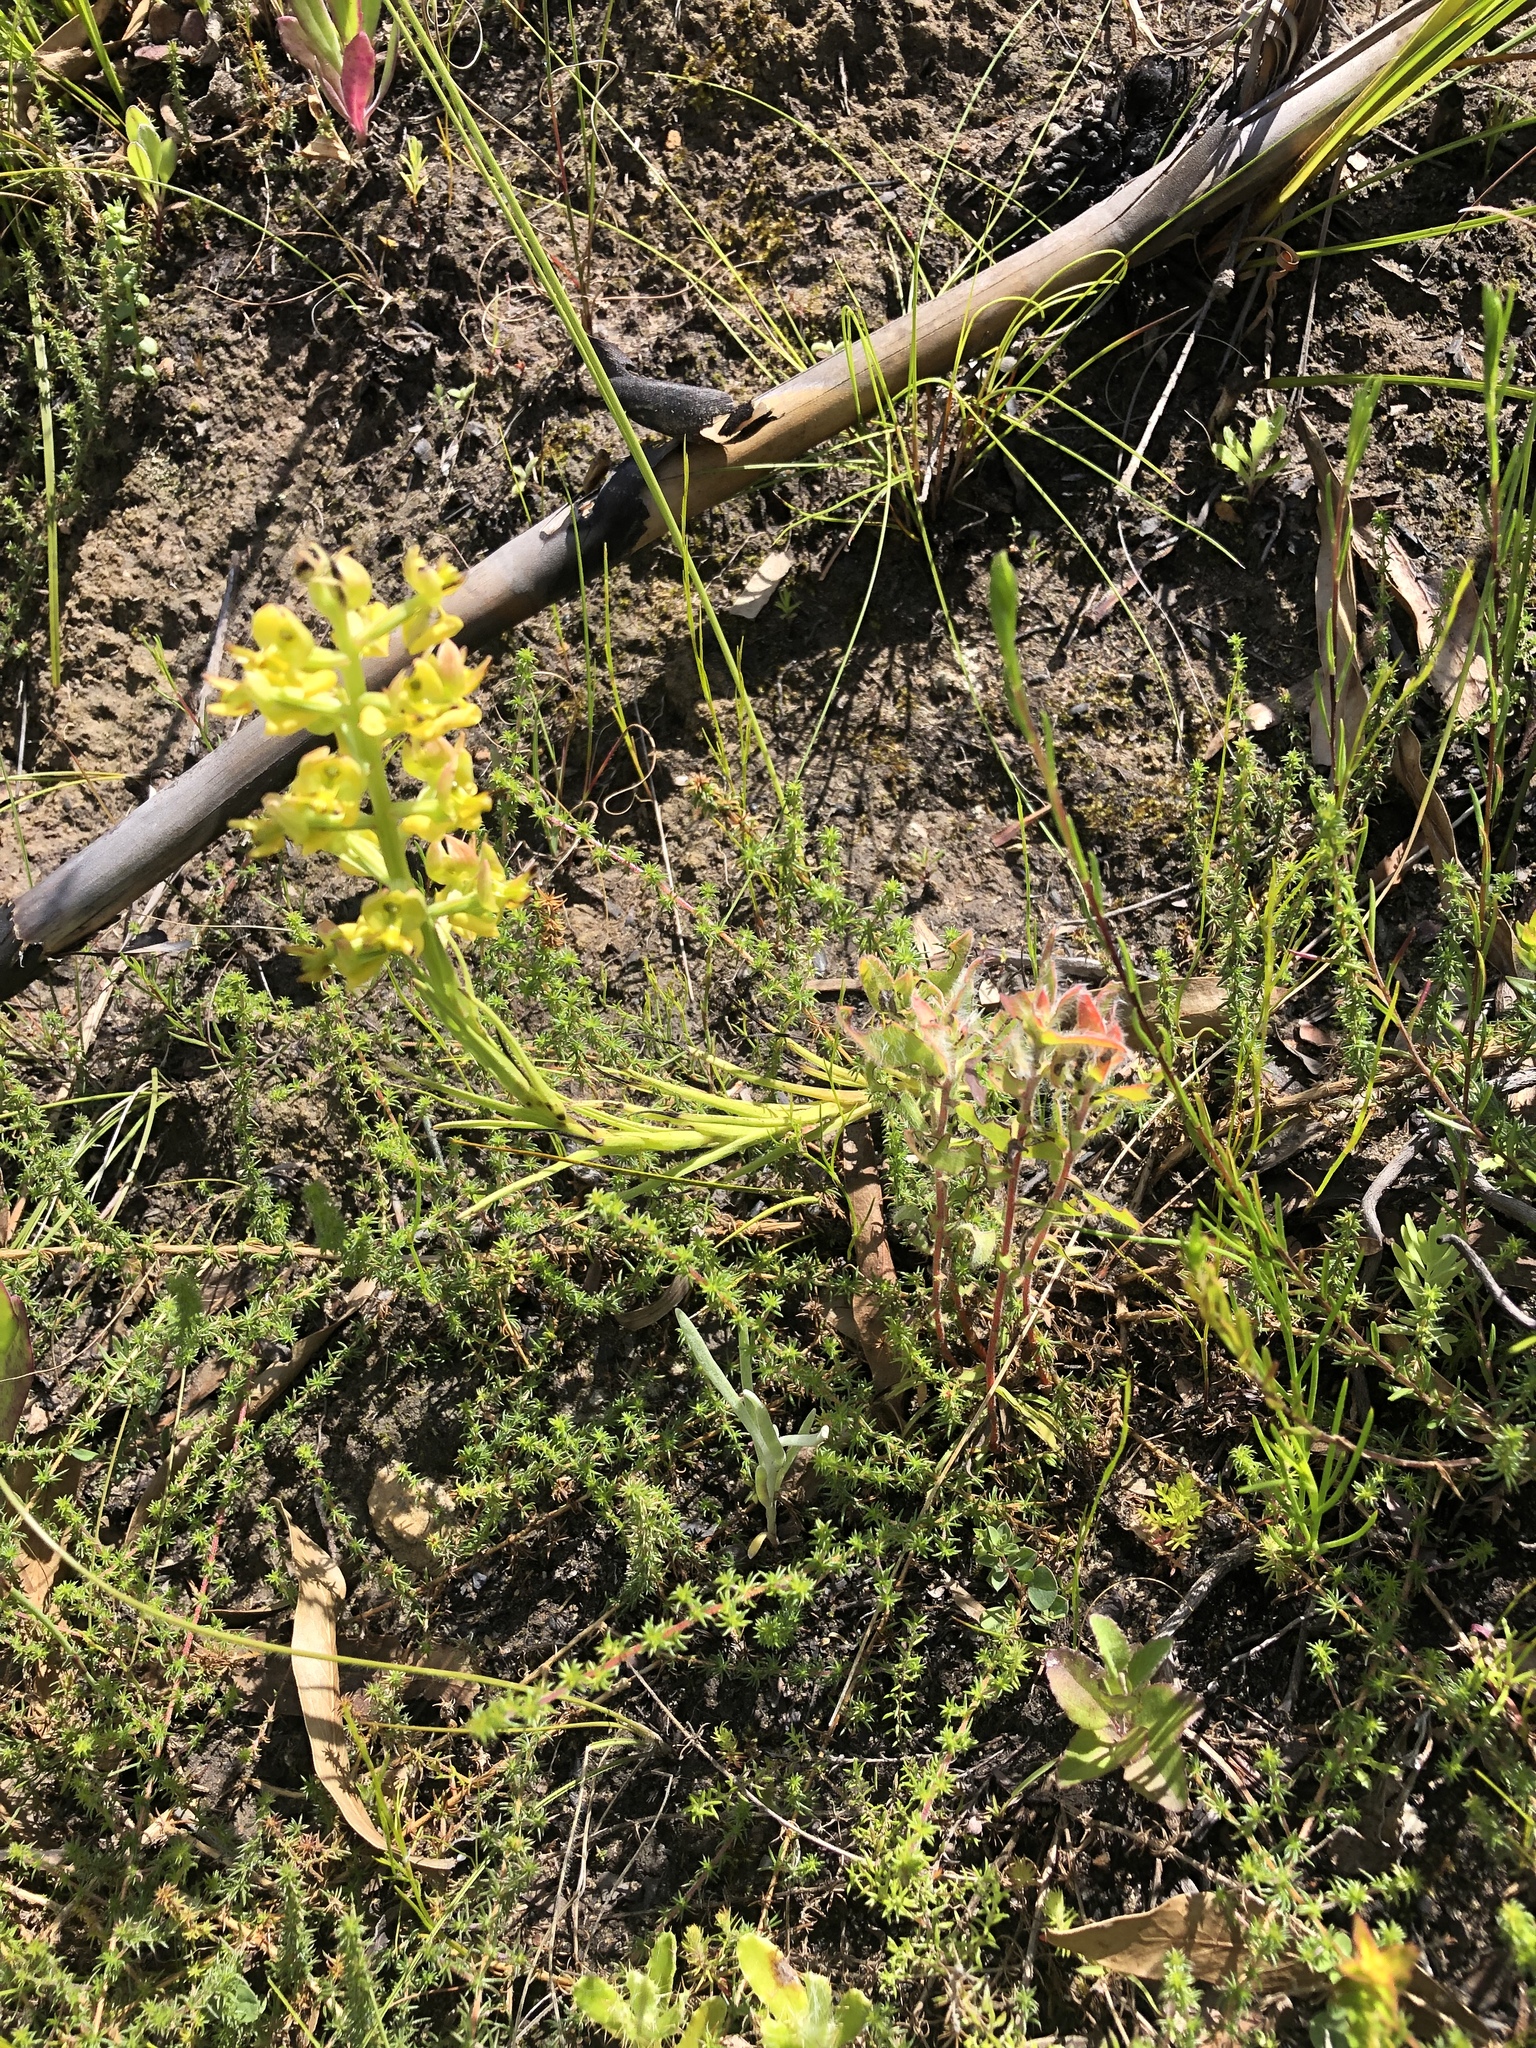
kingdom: Plantae
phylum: Tracheophyta
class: Liliopsida
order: Asparagales
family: Orchidaceae
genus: Ceratandra
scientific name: Ceratandra atrata
